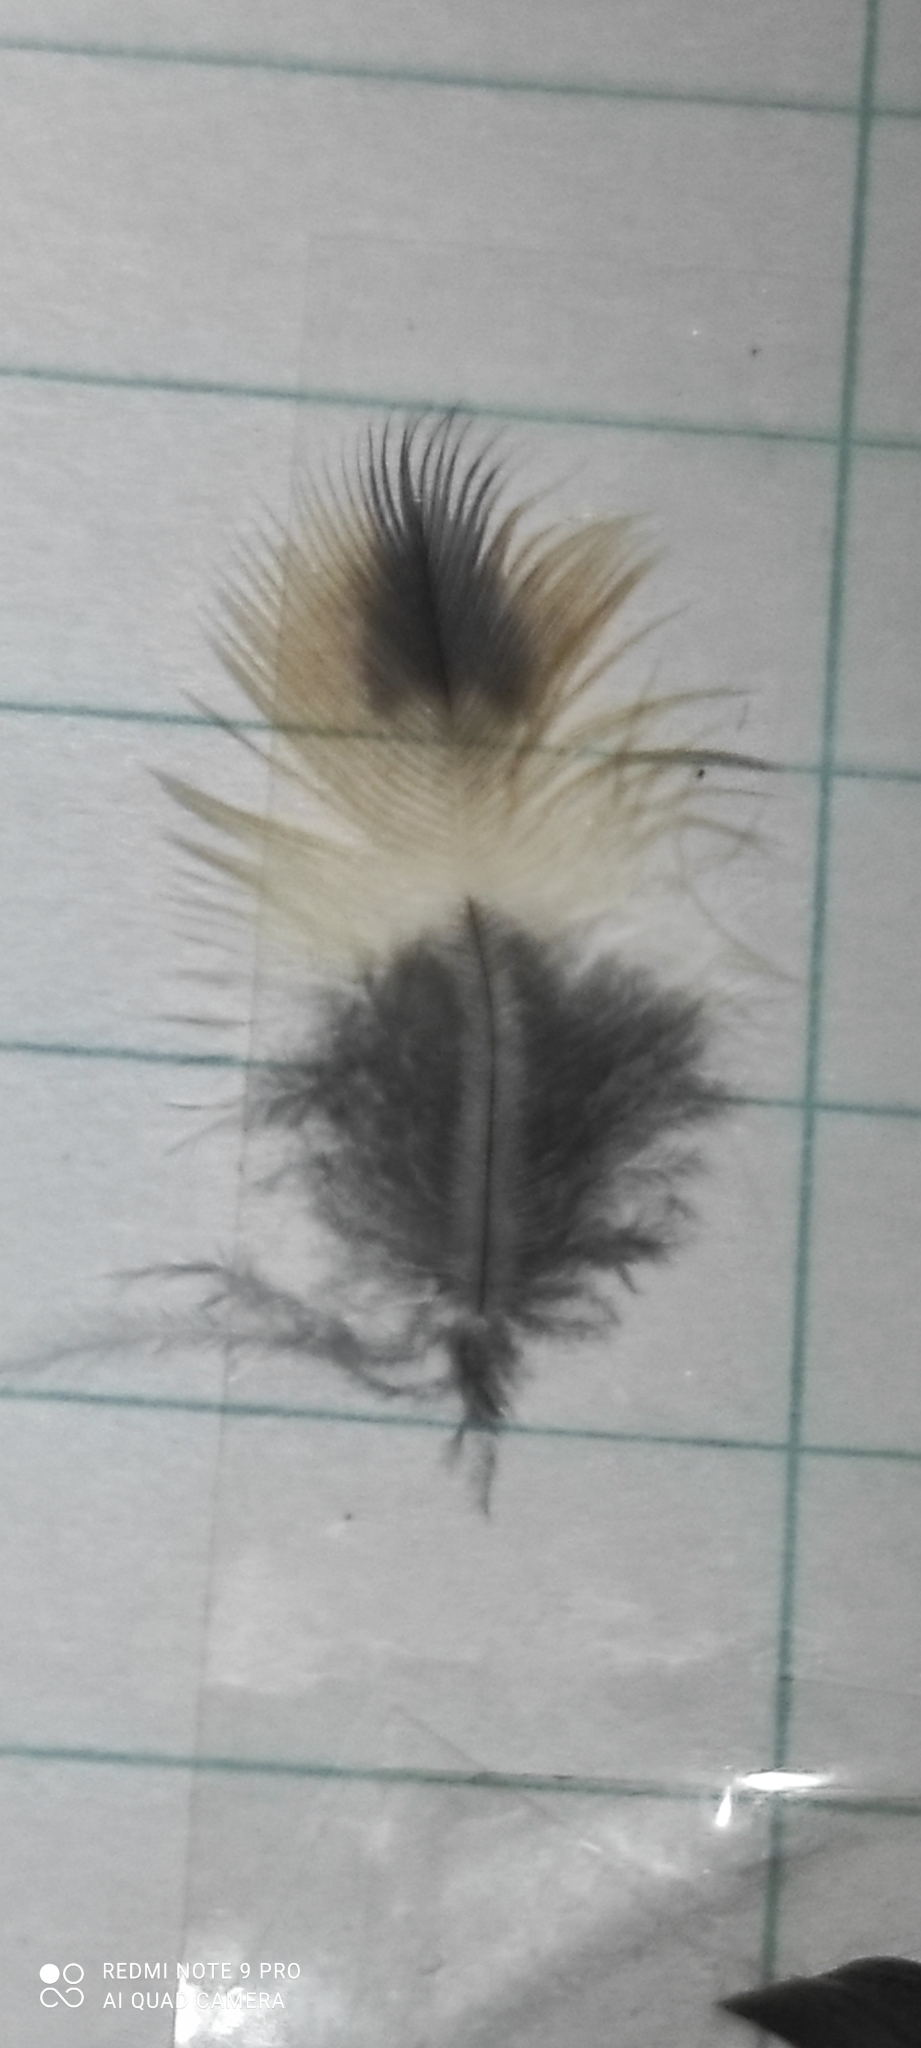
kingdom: Animalia
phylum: Chordata
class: Aves
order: Passeriformes
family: Turdidae
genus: Turdus
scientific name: Turdus pilaris
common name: Fieldfare
